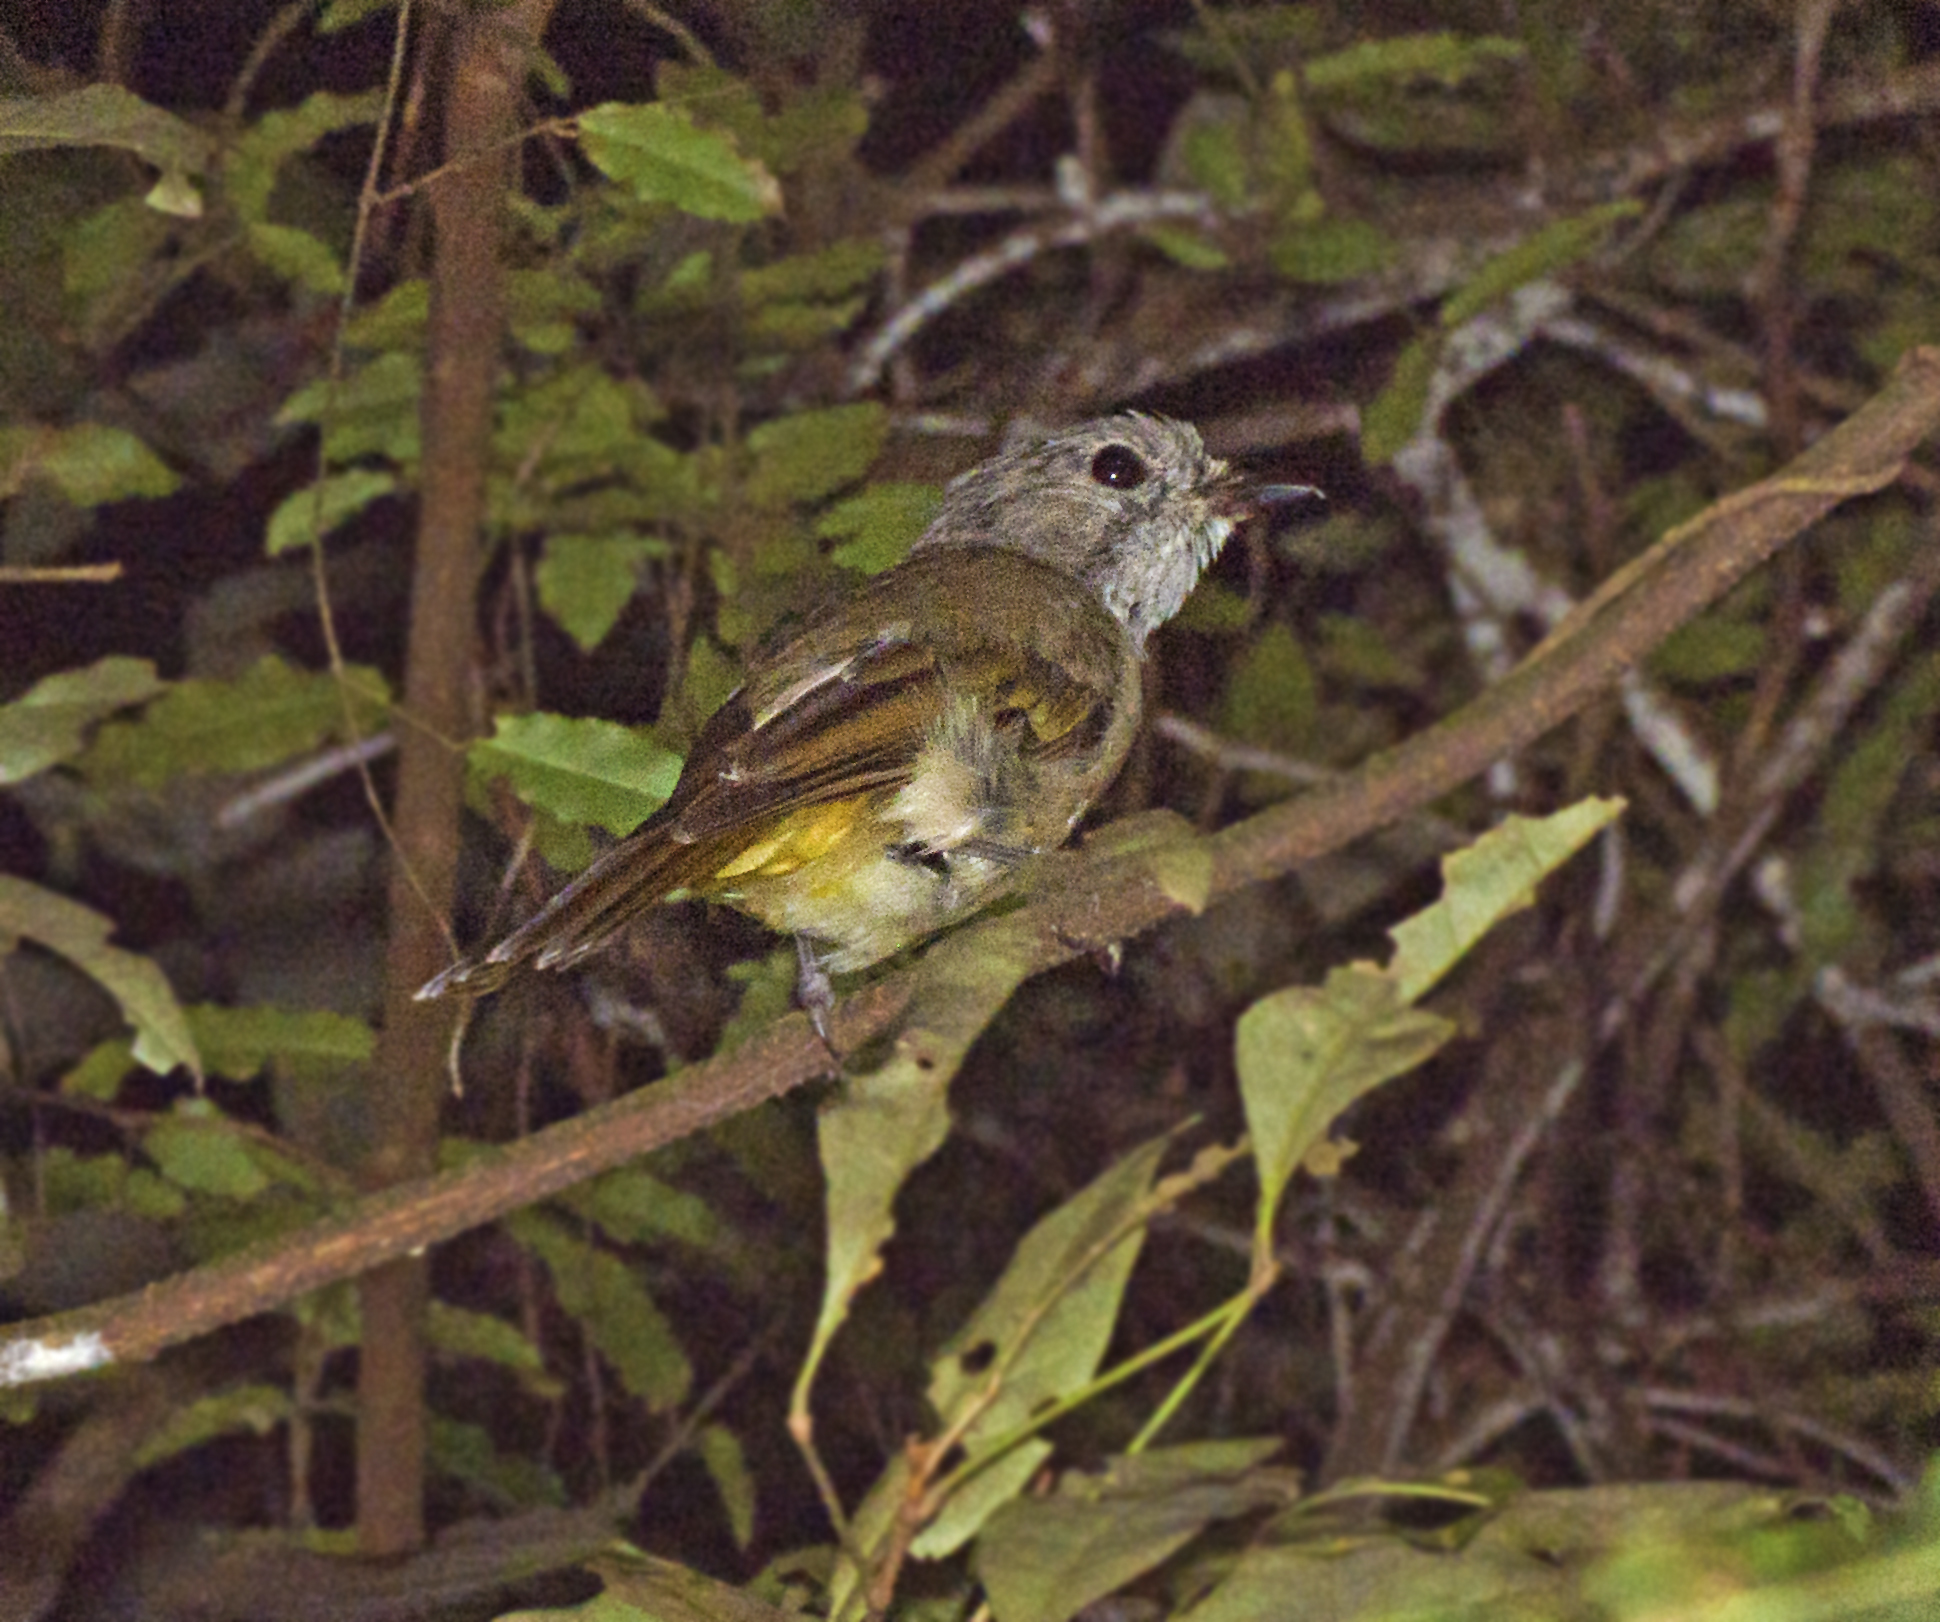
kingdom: Animalia
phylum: Chordata
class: Aves
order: Passeriformes
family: Pachycephalidae
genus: Pachycephala
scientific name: Pachycephala pectoralis
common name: Australian golden whistler
